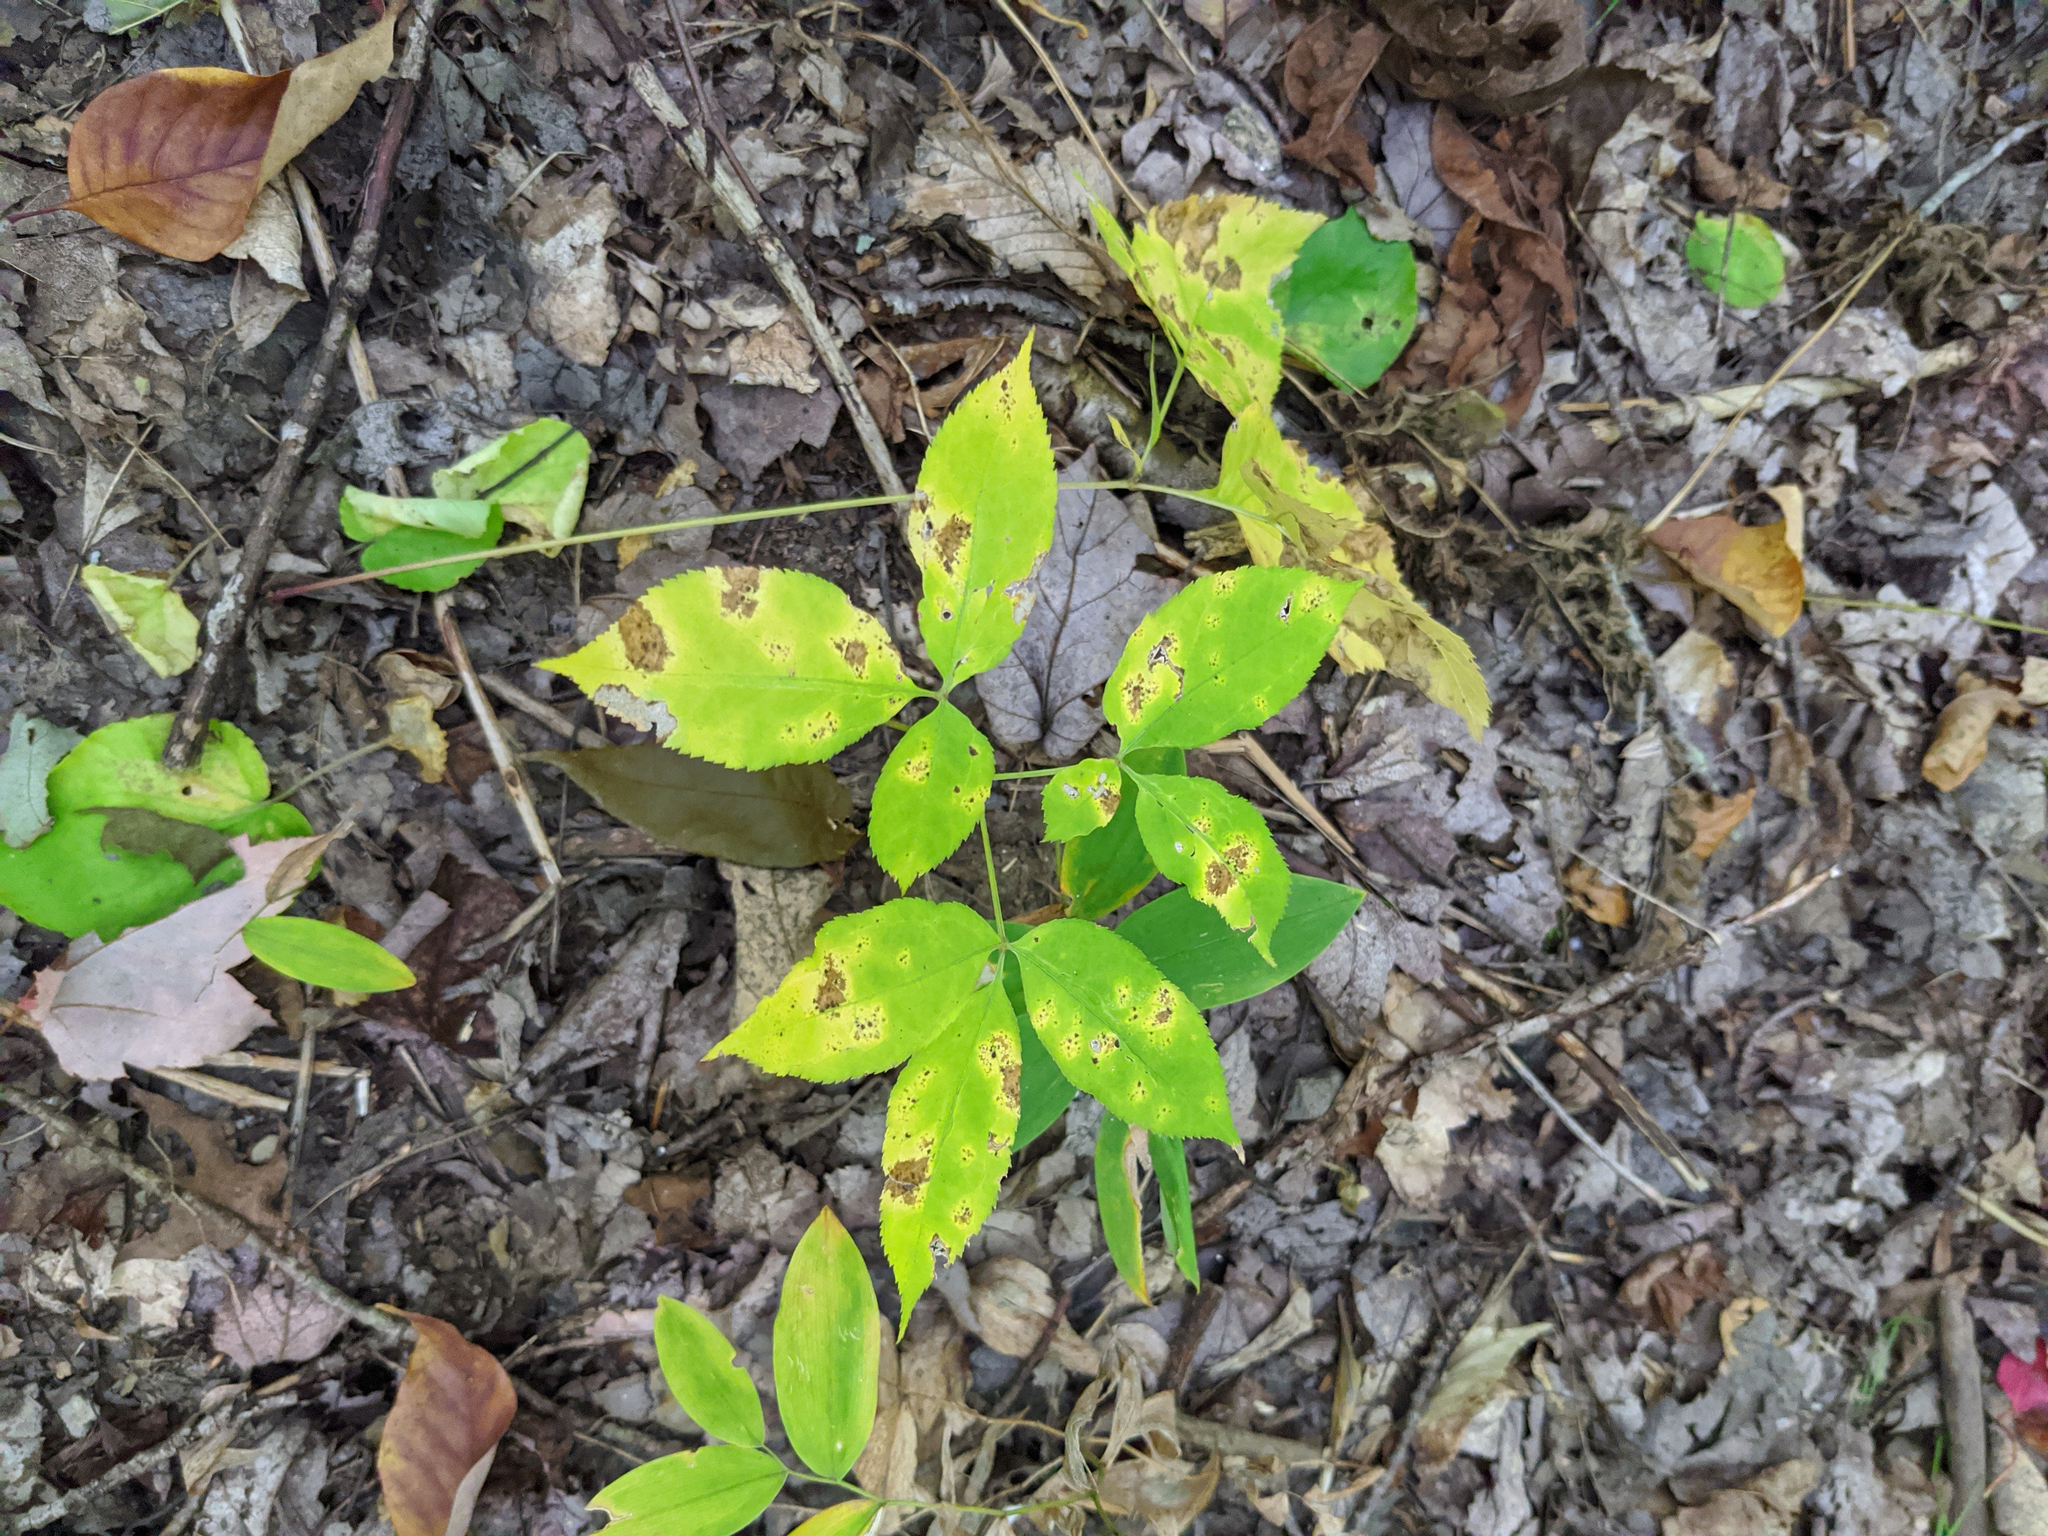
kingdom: Plantae
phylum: Tracheophyta
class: Magnoliopsida
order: Apiales
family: Araliaceae
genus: Aralia
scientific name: Aralia nudicaulis
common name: Wild sarsaparilla
